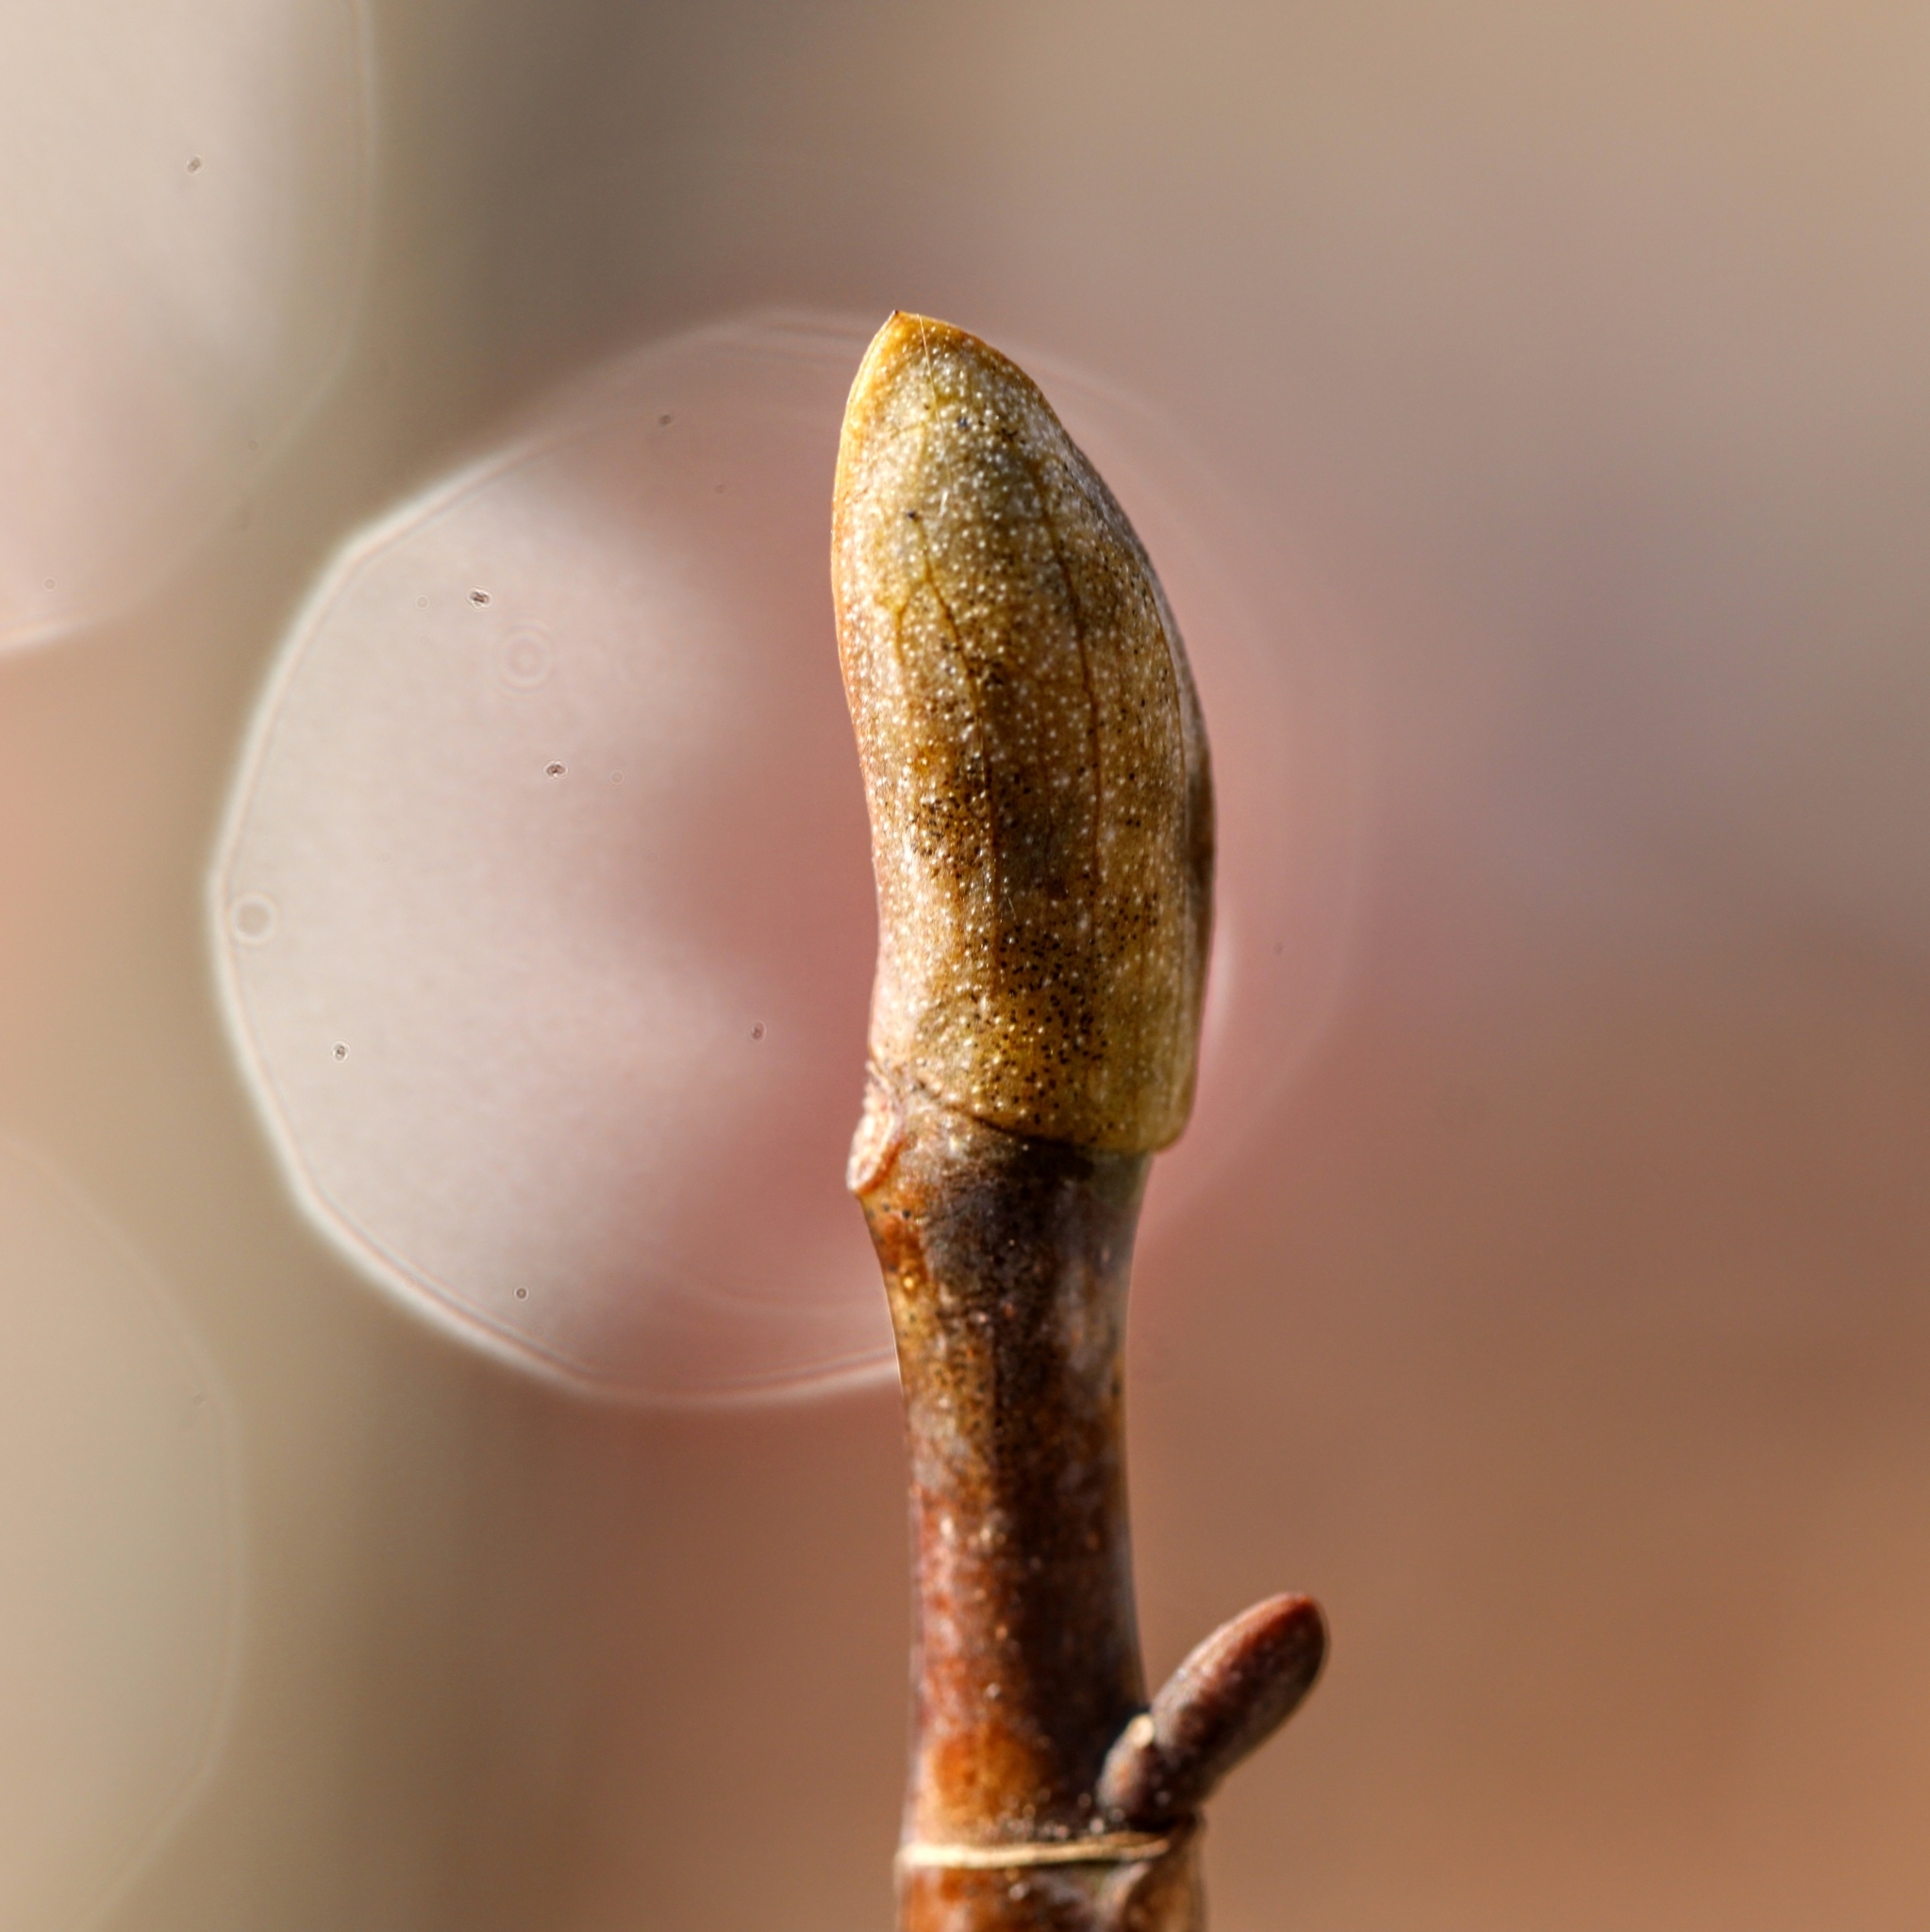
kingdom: Plantae
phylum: Tracheophyta
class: Magnoliopsida
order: Magnoliales
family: Magnoliaceae
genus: Liriodendron
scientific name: Liriodendron tulipifera
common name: Tulip tree
